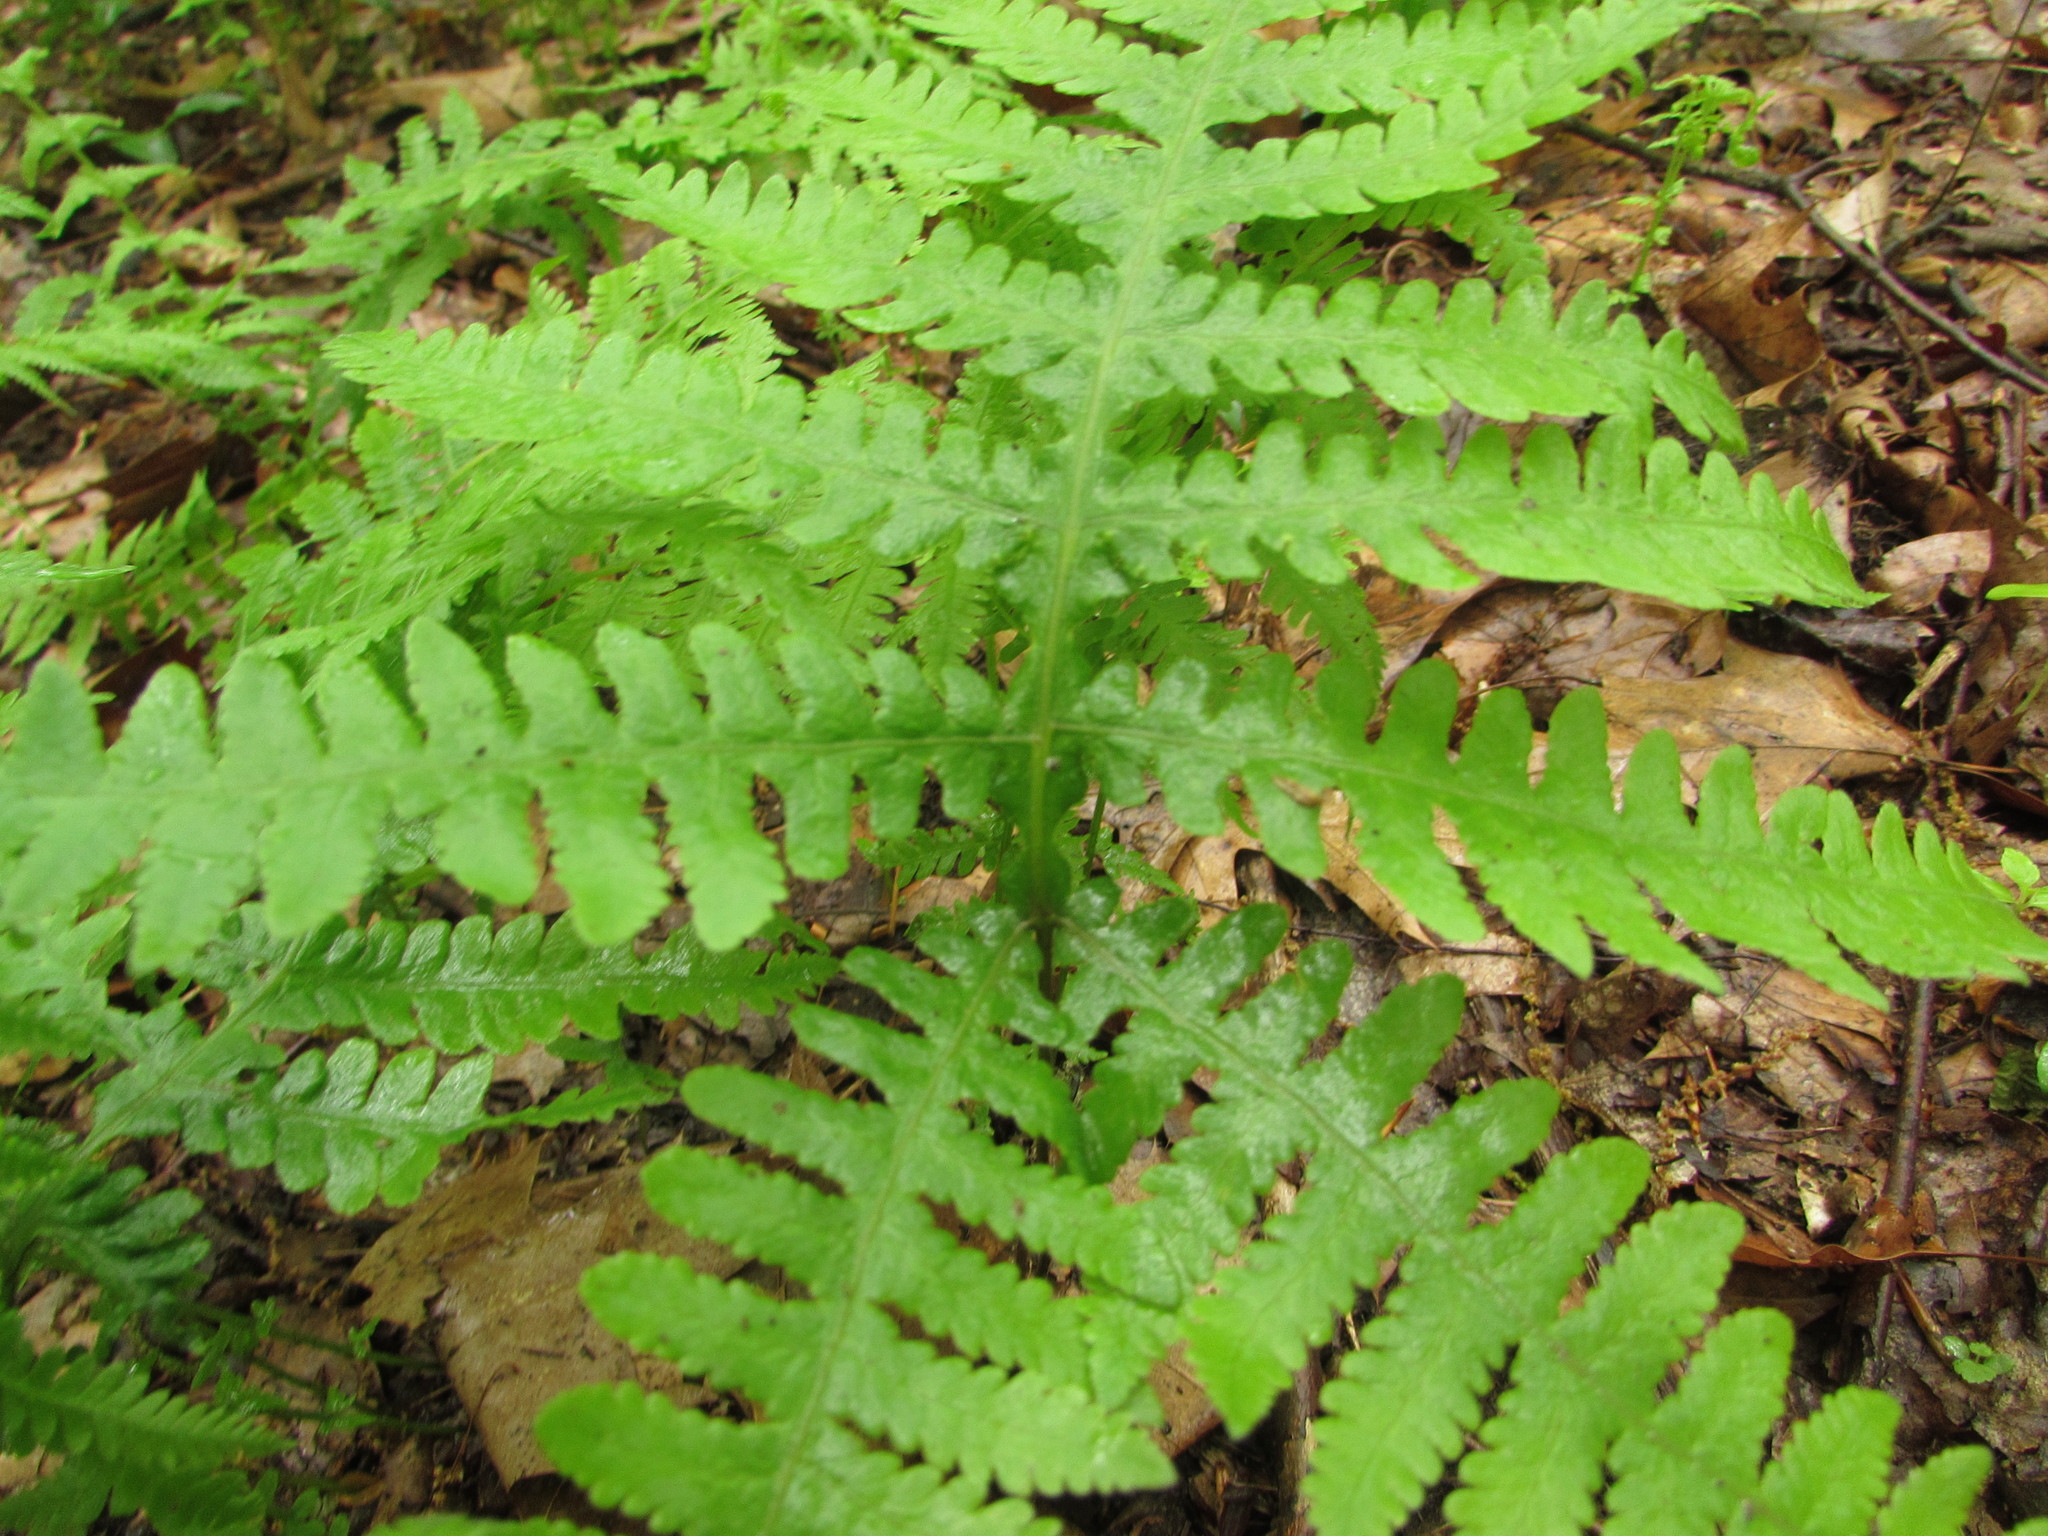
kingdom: Plantae
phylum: Tracheophyta
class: Polypodiopsida
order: Polypodiales
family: Thelypteridaceae
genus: Phegopteris
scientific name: Phegopteris hexagonoptera
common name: Broad beech fern
